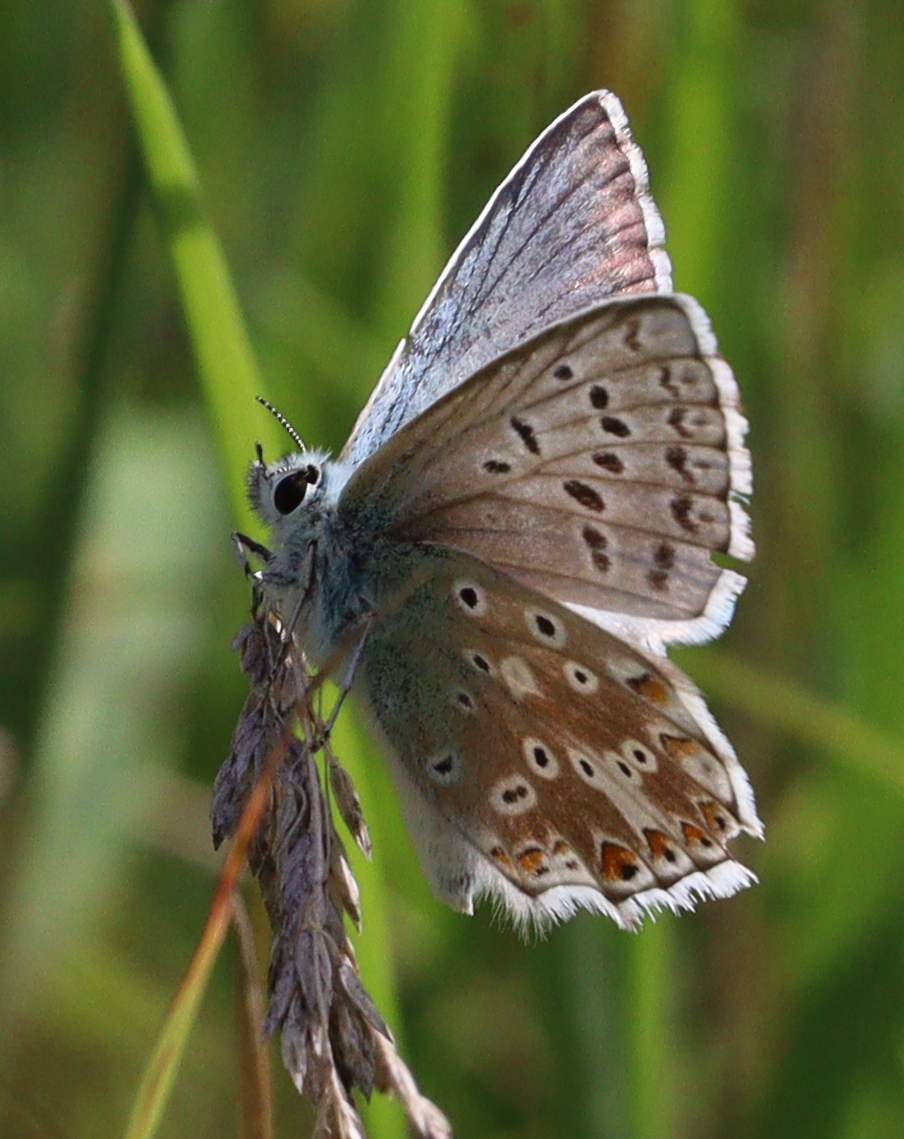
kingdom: Animalia
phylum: Arthropoda
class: Insecta
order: Lepidoptera
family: Lycaenidae
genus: Lysandra
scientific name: Lysandra coridon
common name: Chalkhill blue
